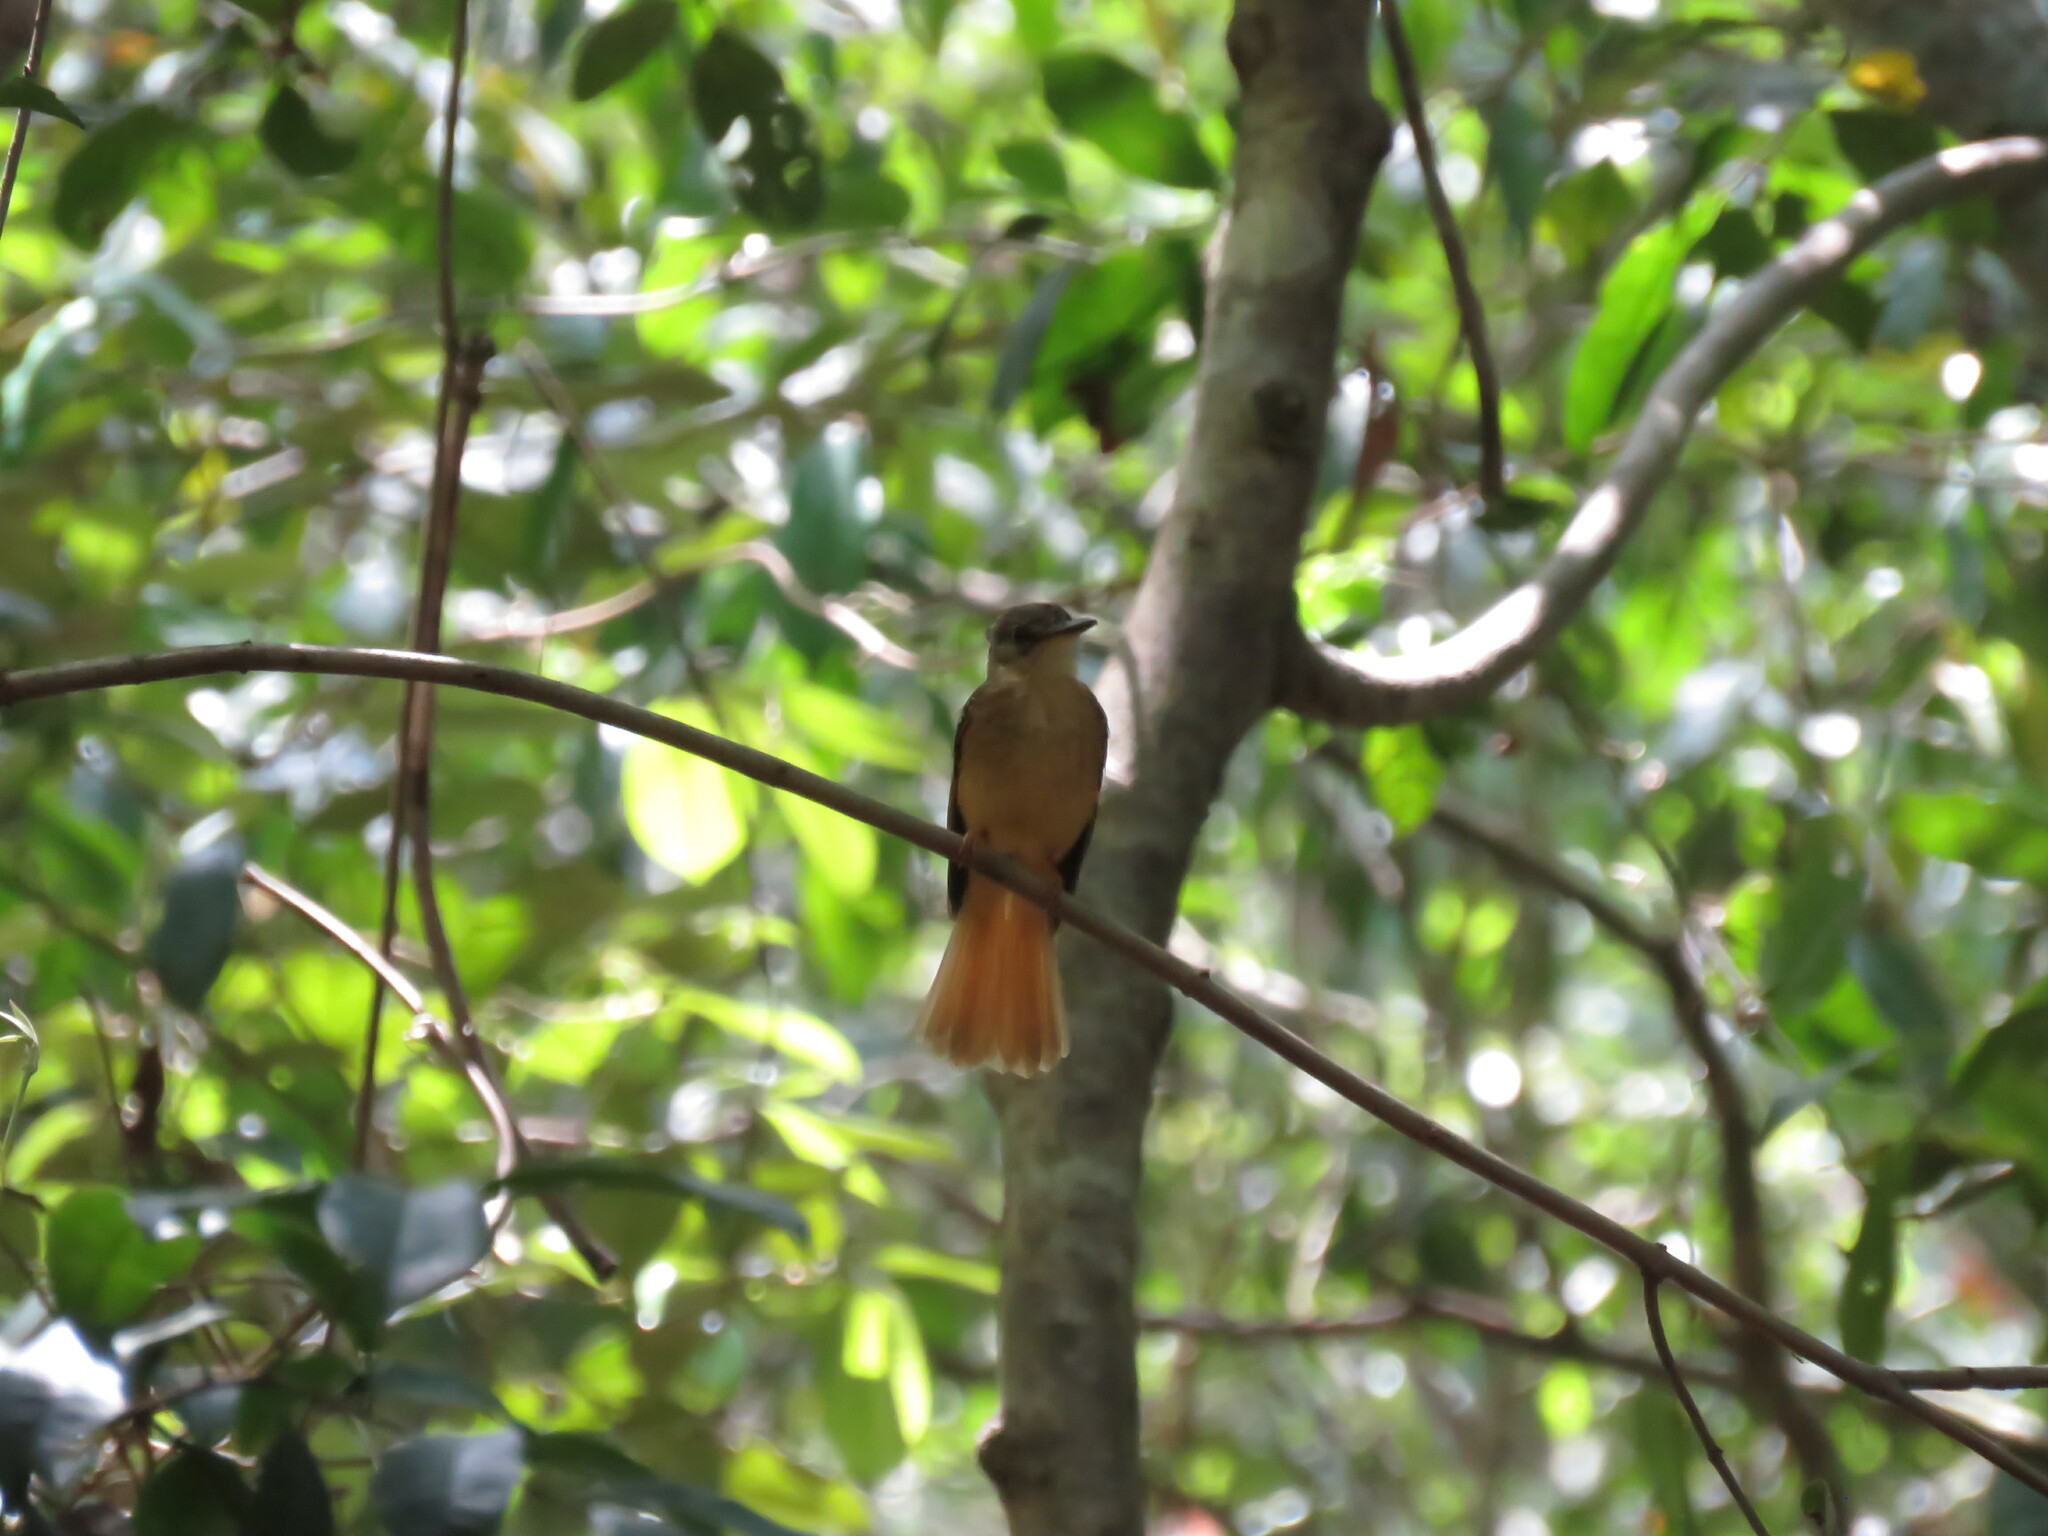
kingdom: Animalia
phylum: Chordata
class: Aves
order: Passeriformes
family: Tyrannidae
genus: Onychorhynchus
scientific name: Onychorhynchus coronatus
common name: Royal flycatcher
